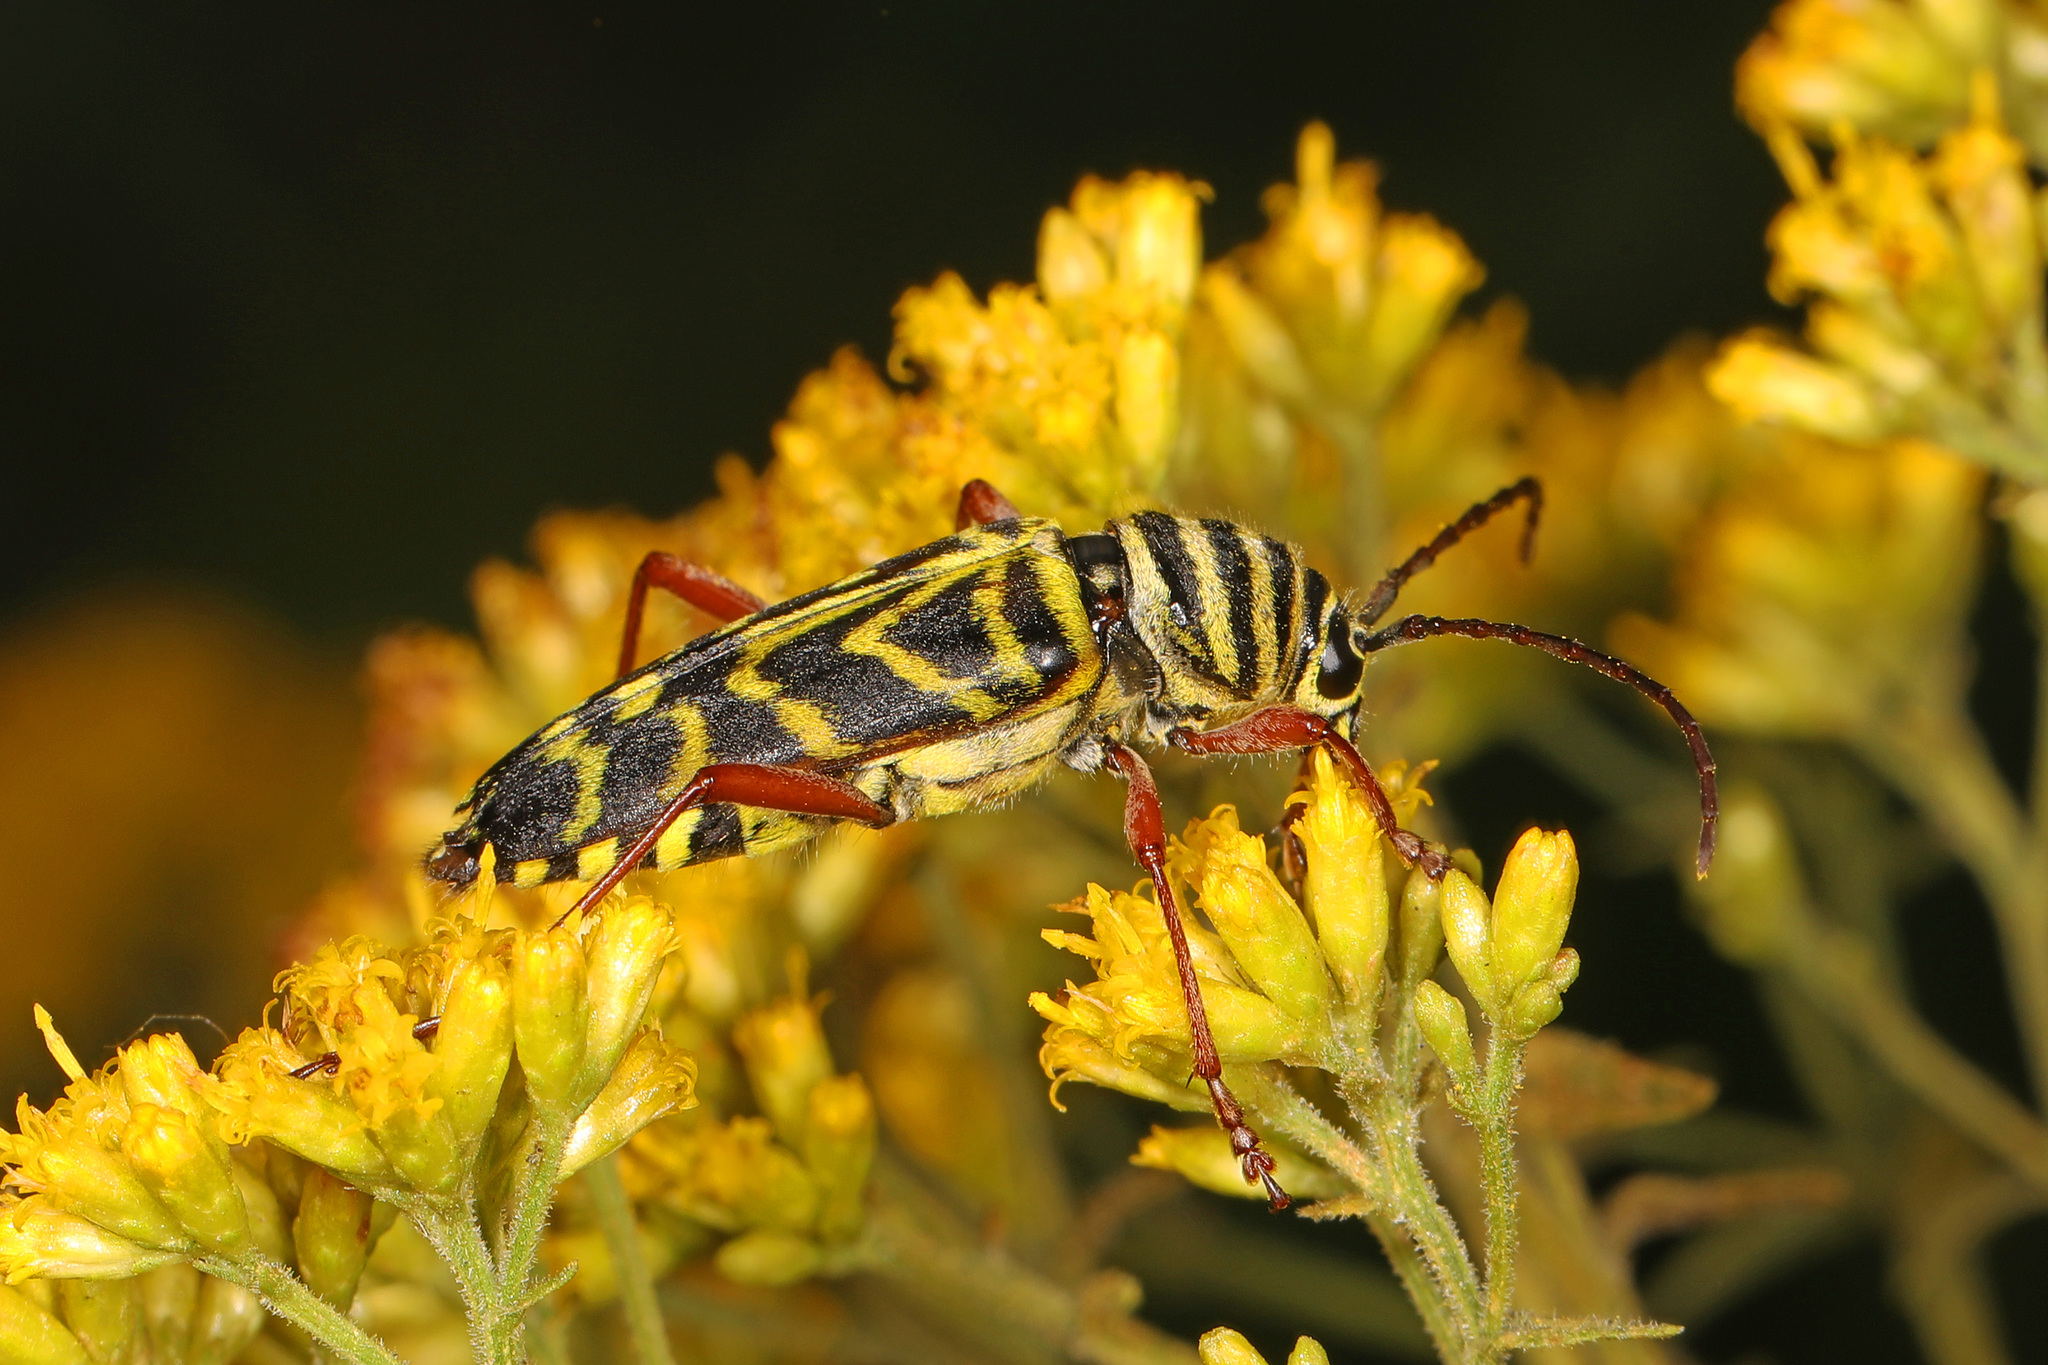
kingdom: Animalia
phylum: Arthropoda
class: Insecta
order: Coleoptera
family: Cerambycidae
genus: Megacyllene
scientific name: Megacyllene robiniae
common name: Locust borer
